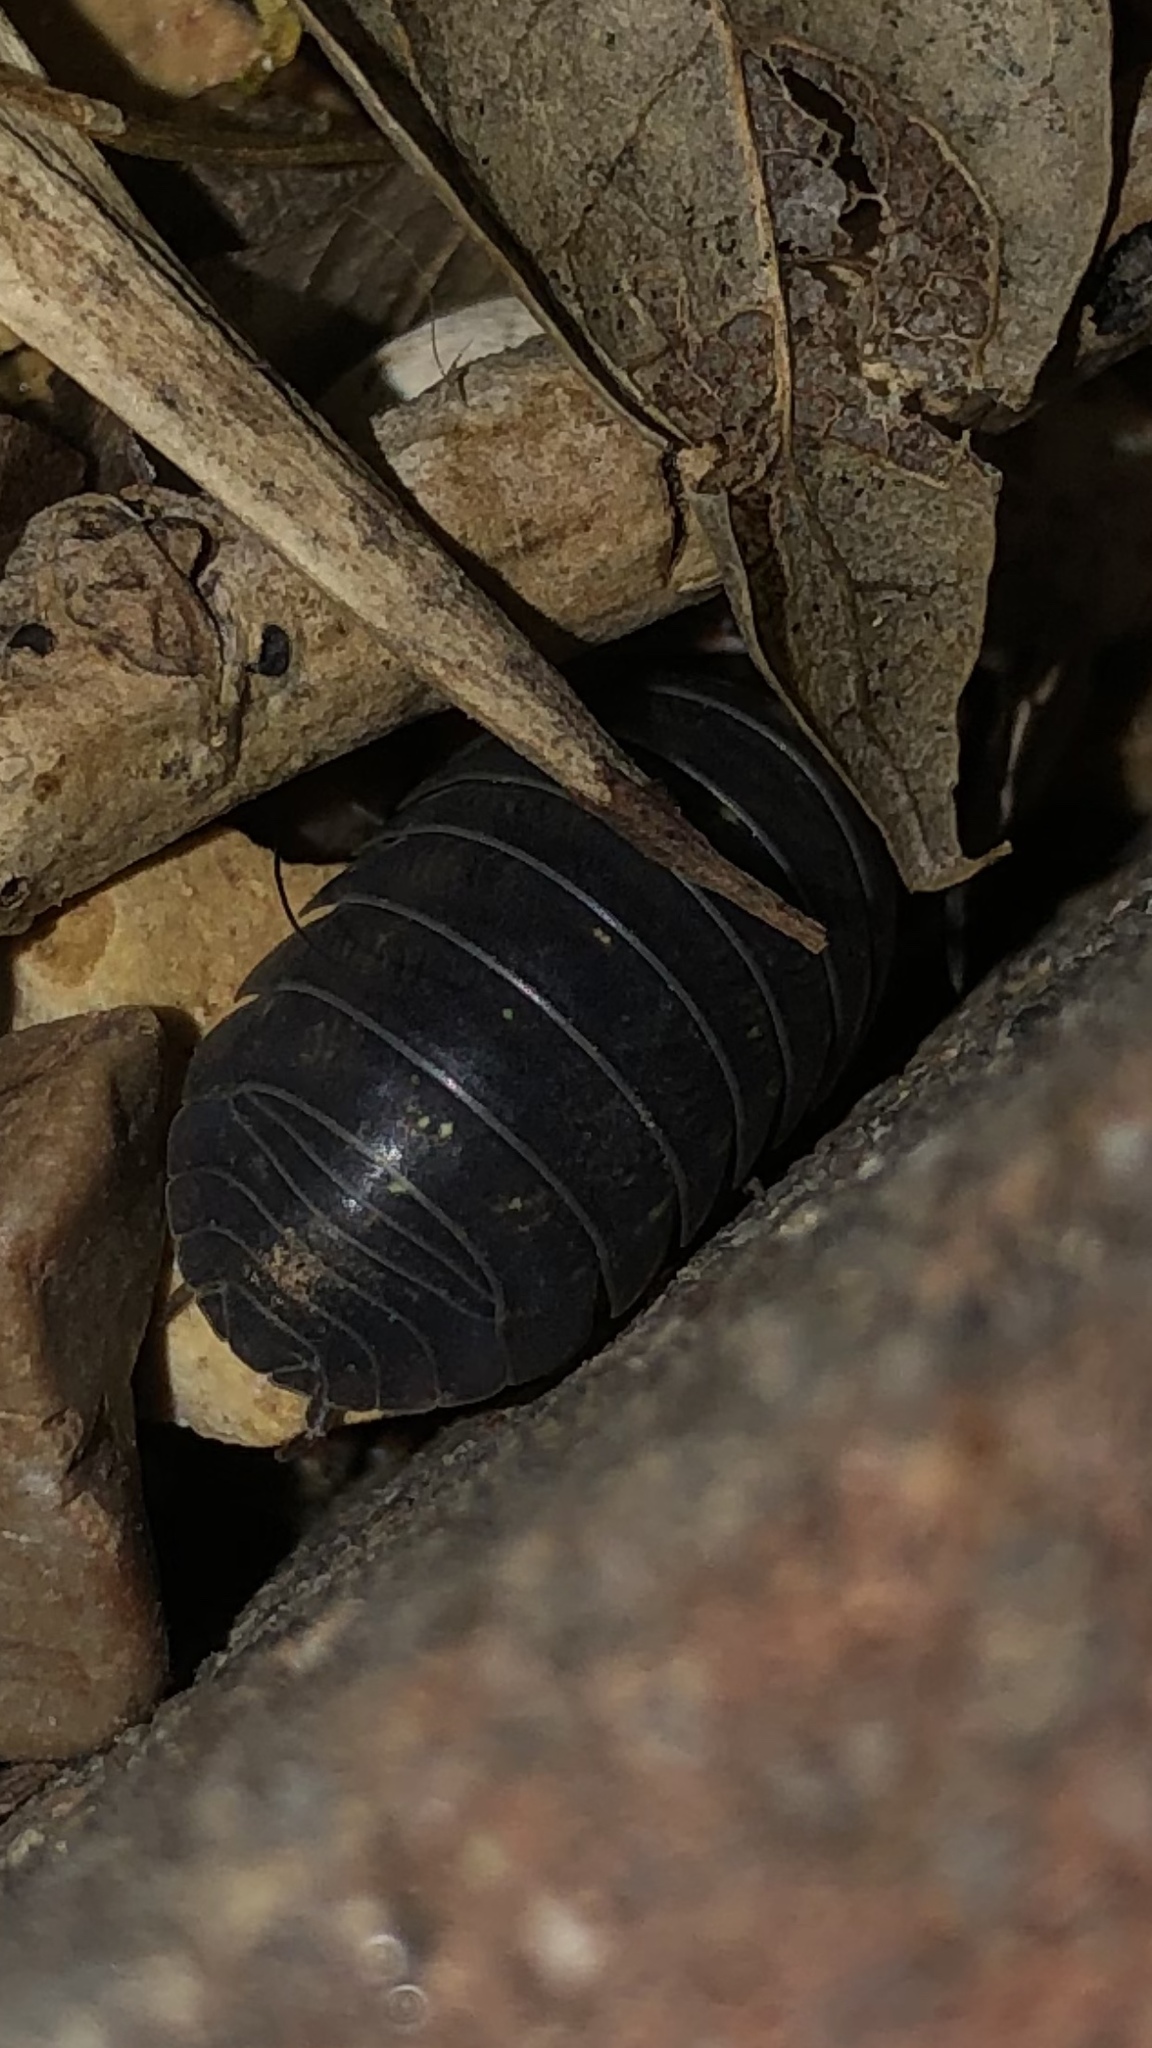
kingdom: Animalia
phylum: Arthropoda
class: Malacostraca
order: Isopoda
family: Armadillidiidae
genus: Armadillidium
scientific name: Armadillidium vulgare
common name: Common pill woodlouse
